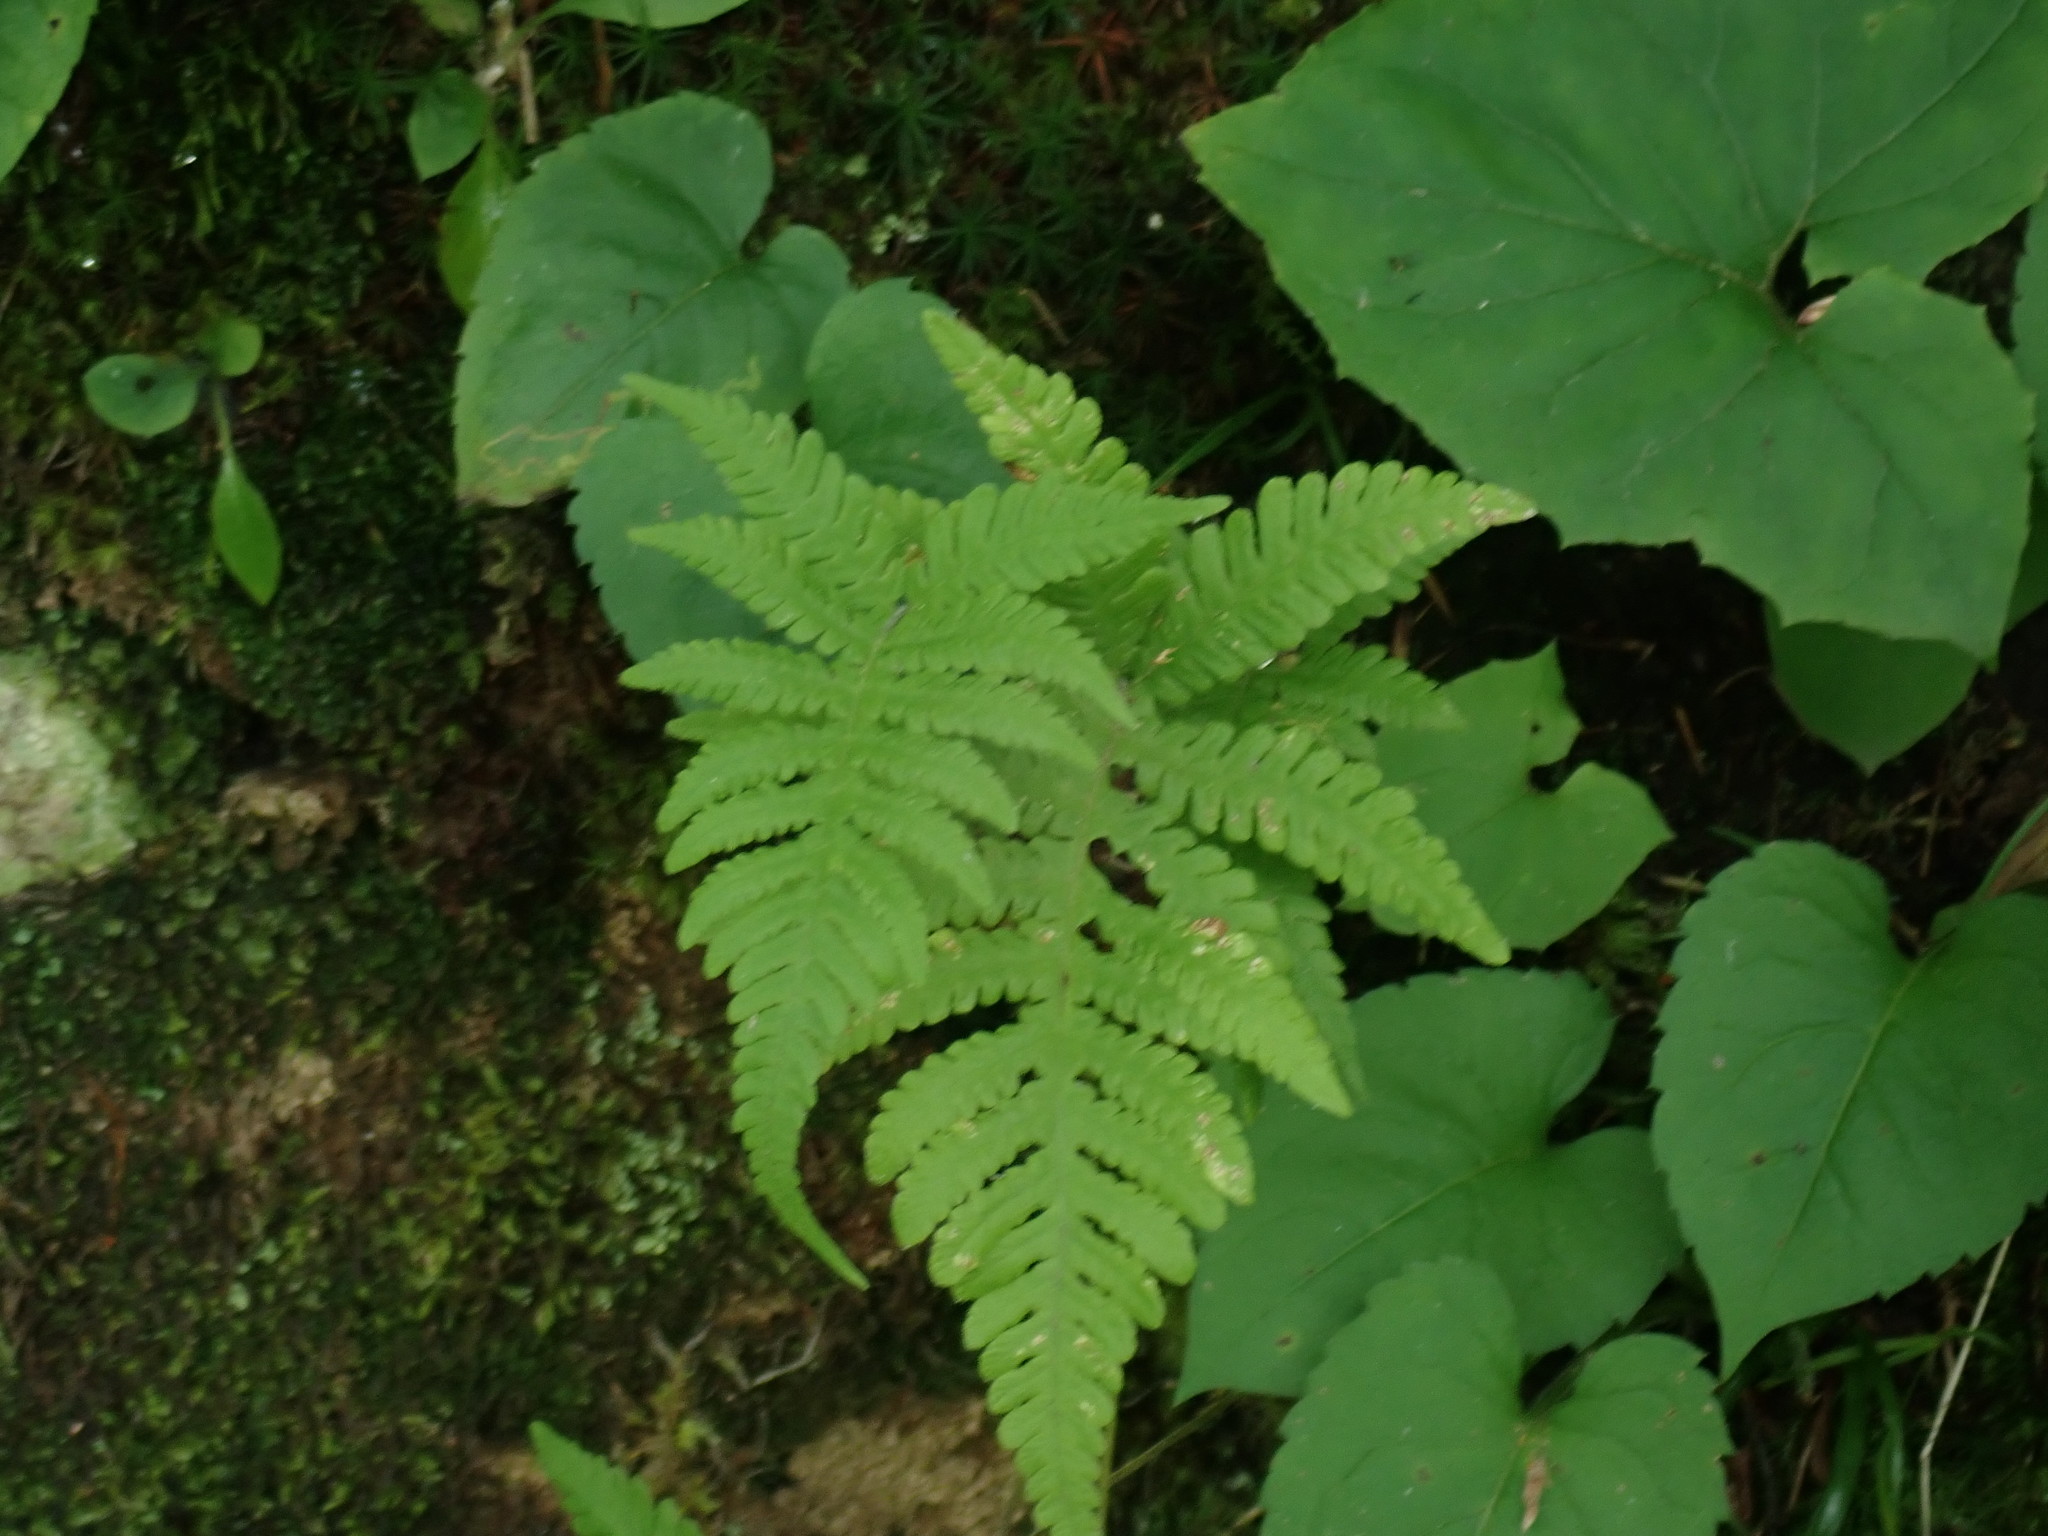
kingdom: Plantae
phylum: Tracheophyta
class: Polypodiopsida
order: Polypodiales
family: Thelypteridaceae
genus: Phegopteris
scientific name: Phegopteris connectilis
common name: Beech fern
